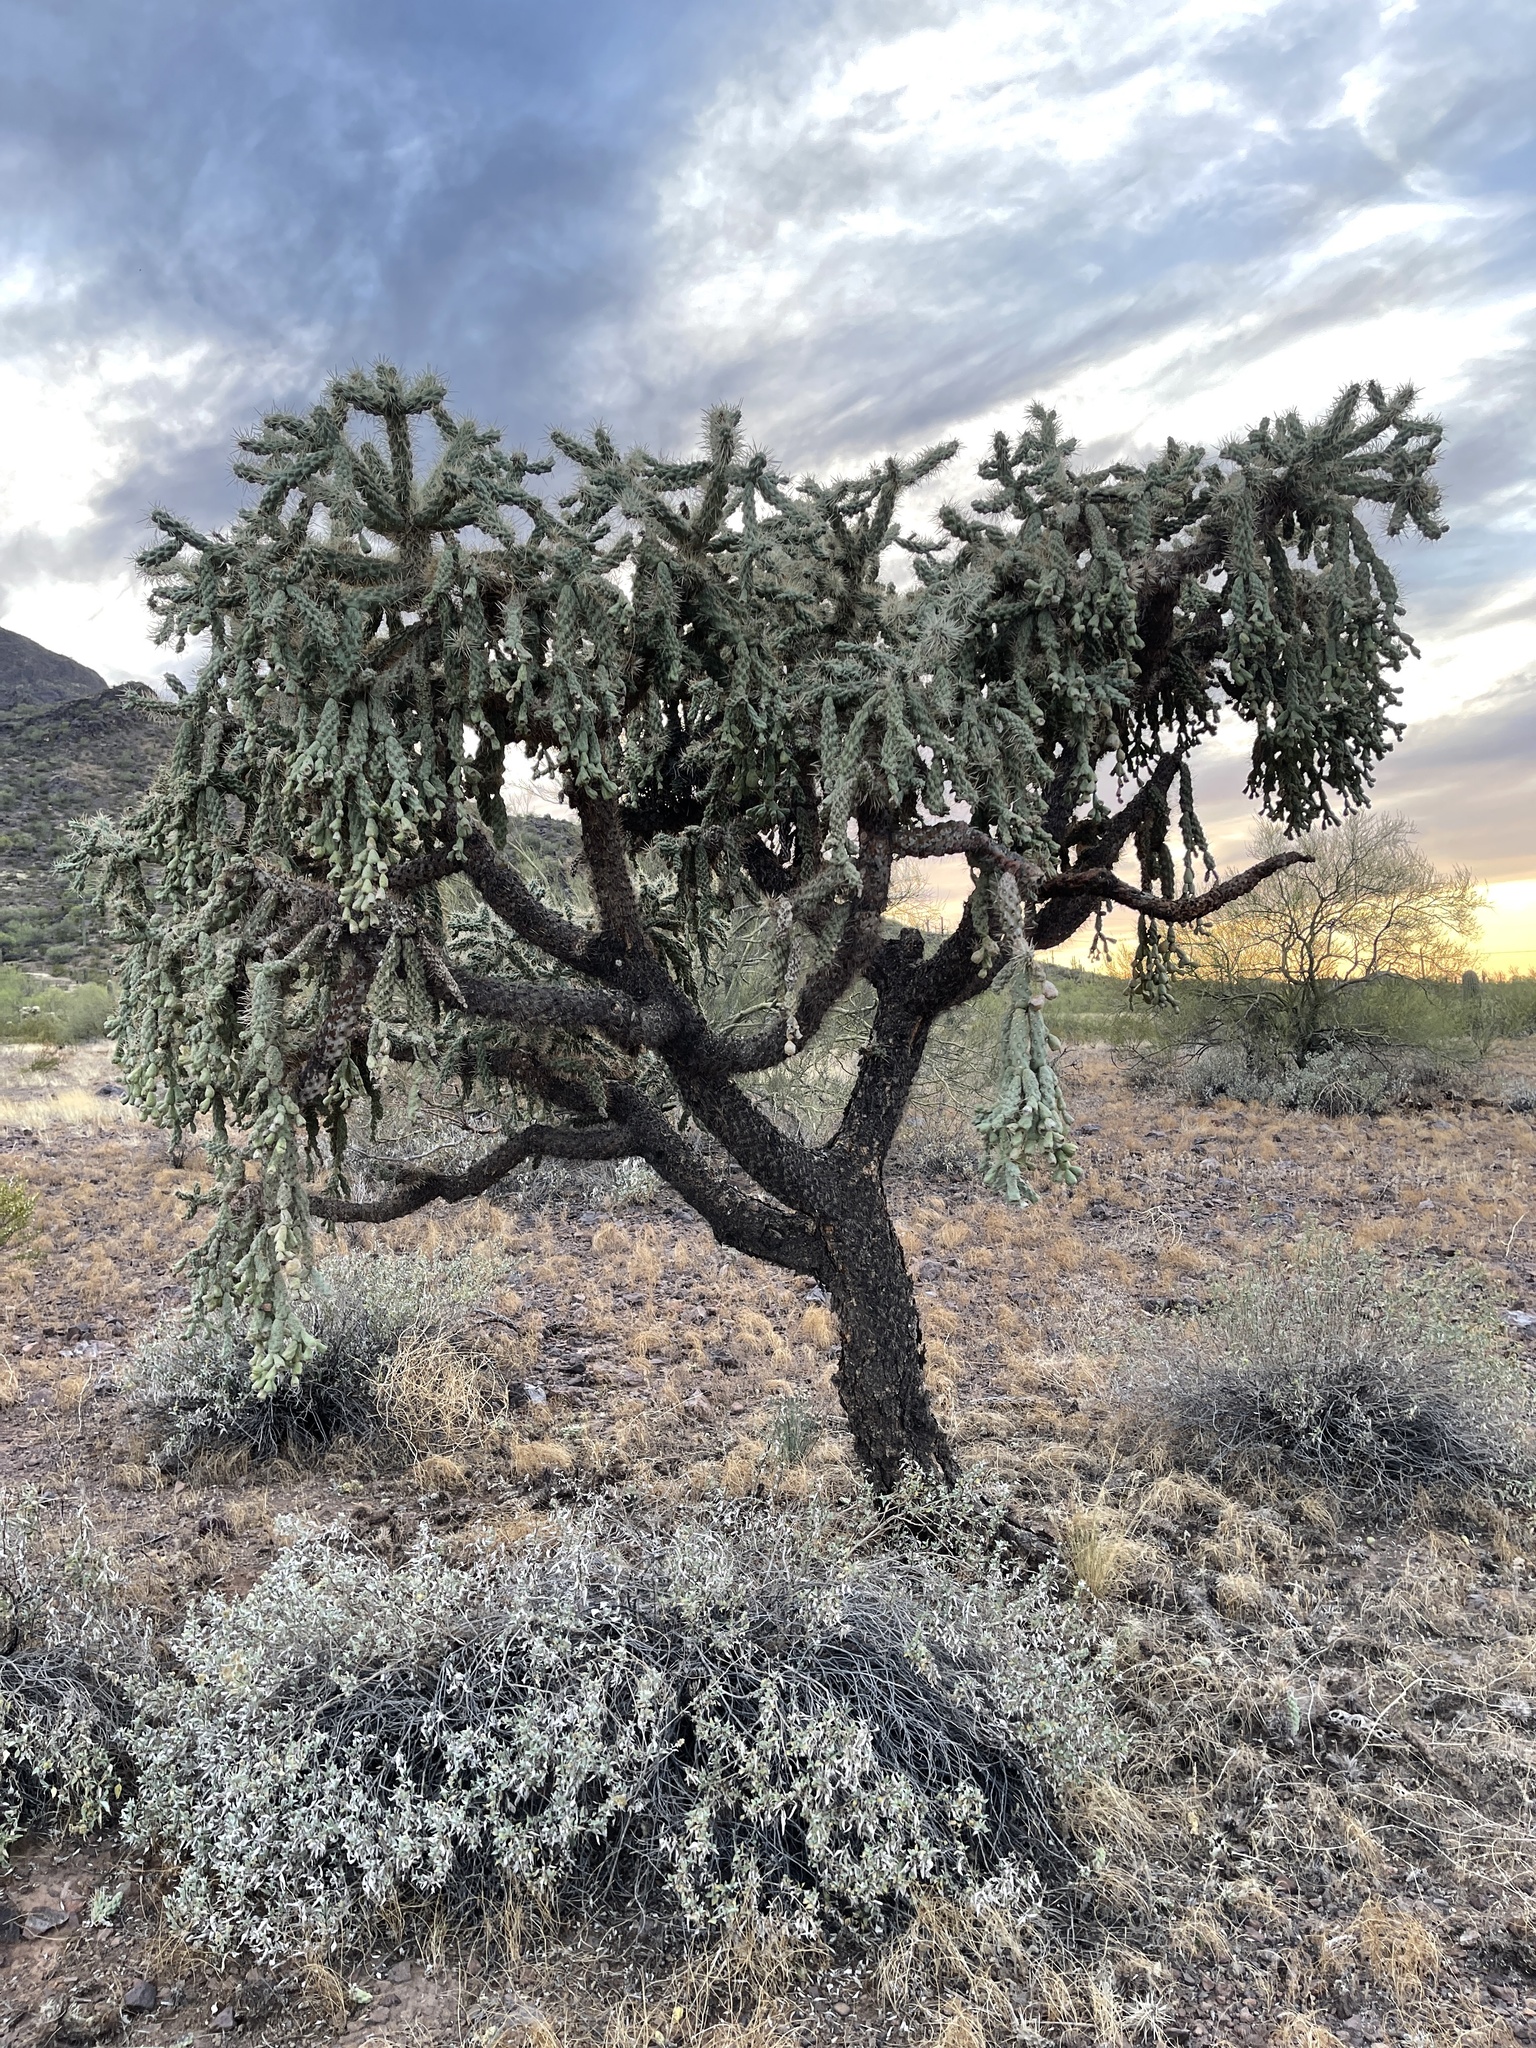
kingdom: Plantae
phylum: Tracheophyta
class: Magnoliopsida
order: Caryophyllales
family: Cactaceae
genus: Cylindropuntia
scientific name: Cylindropuntia fulgida
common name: Jumping cholla
